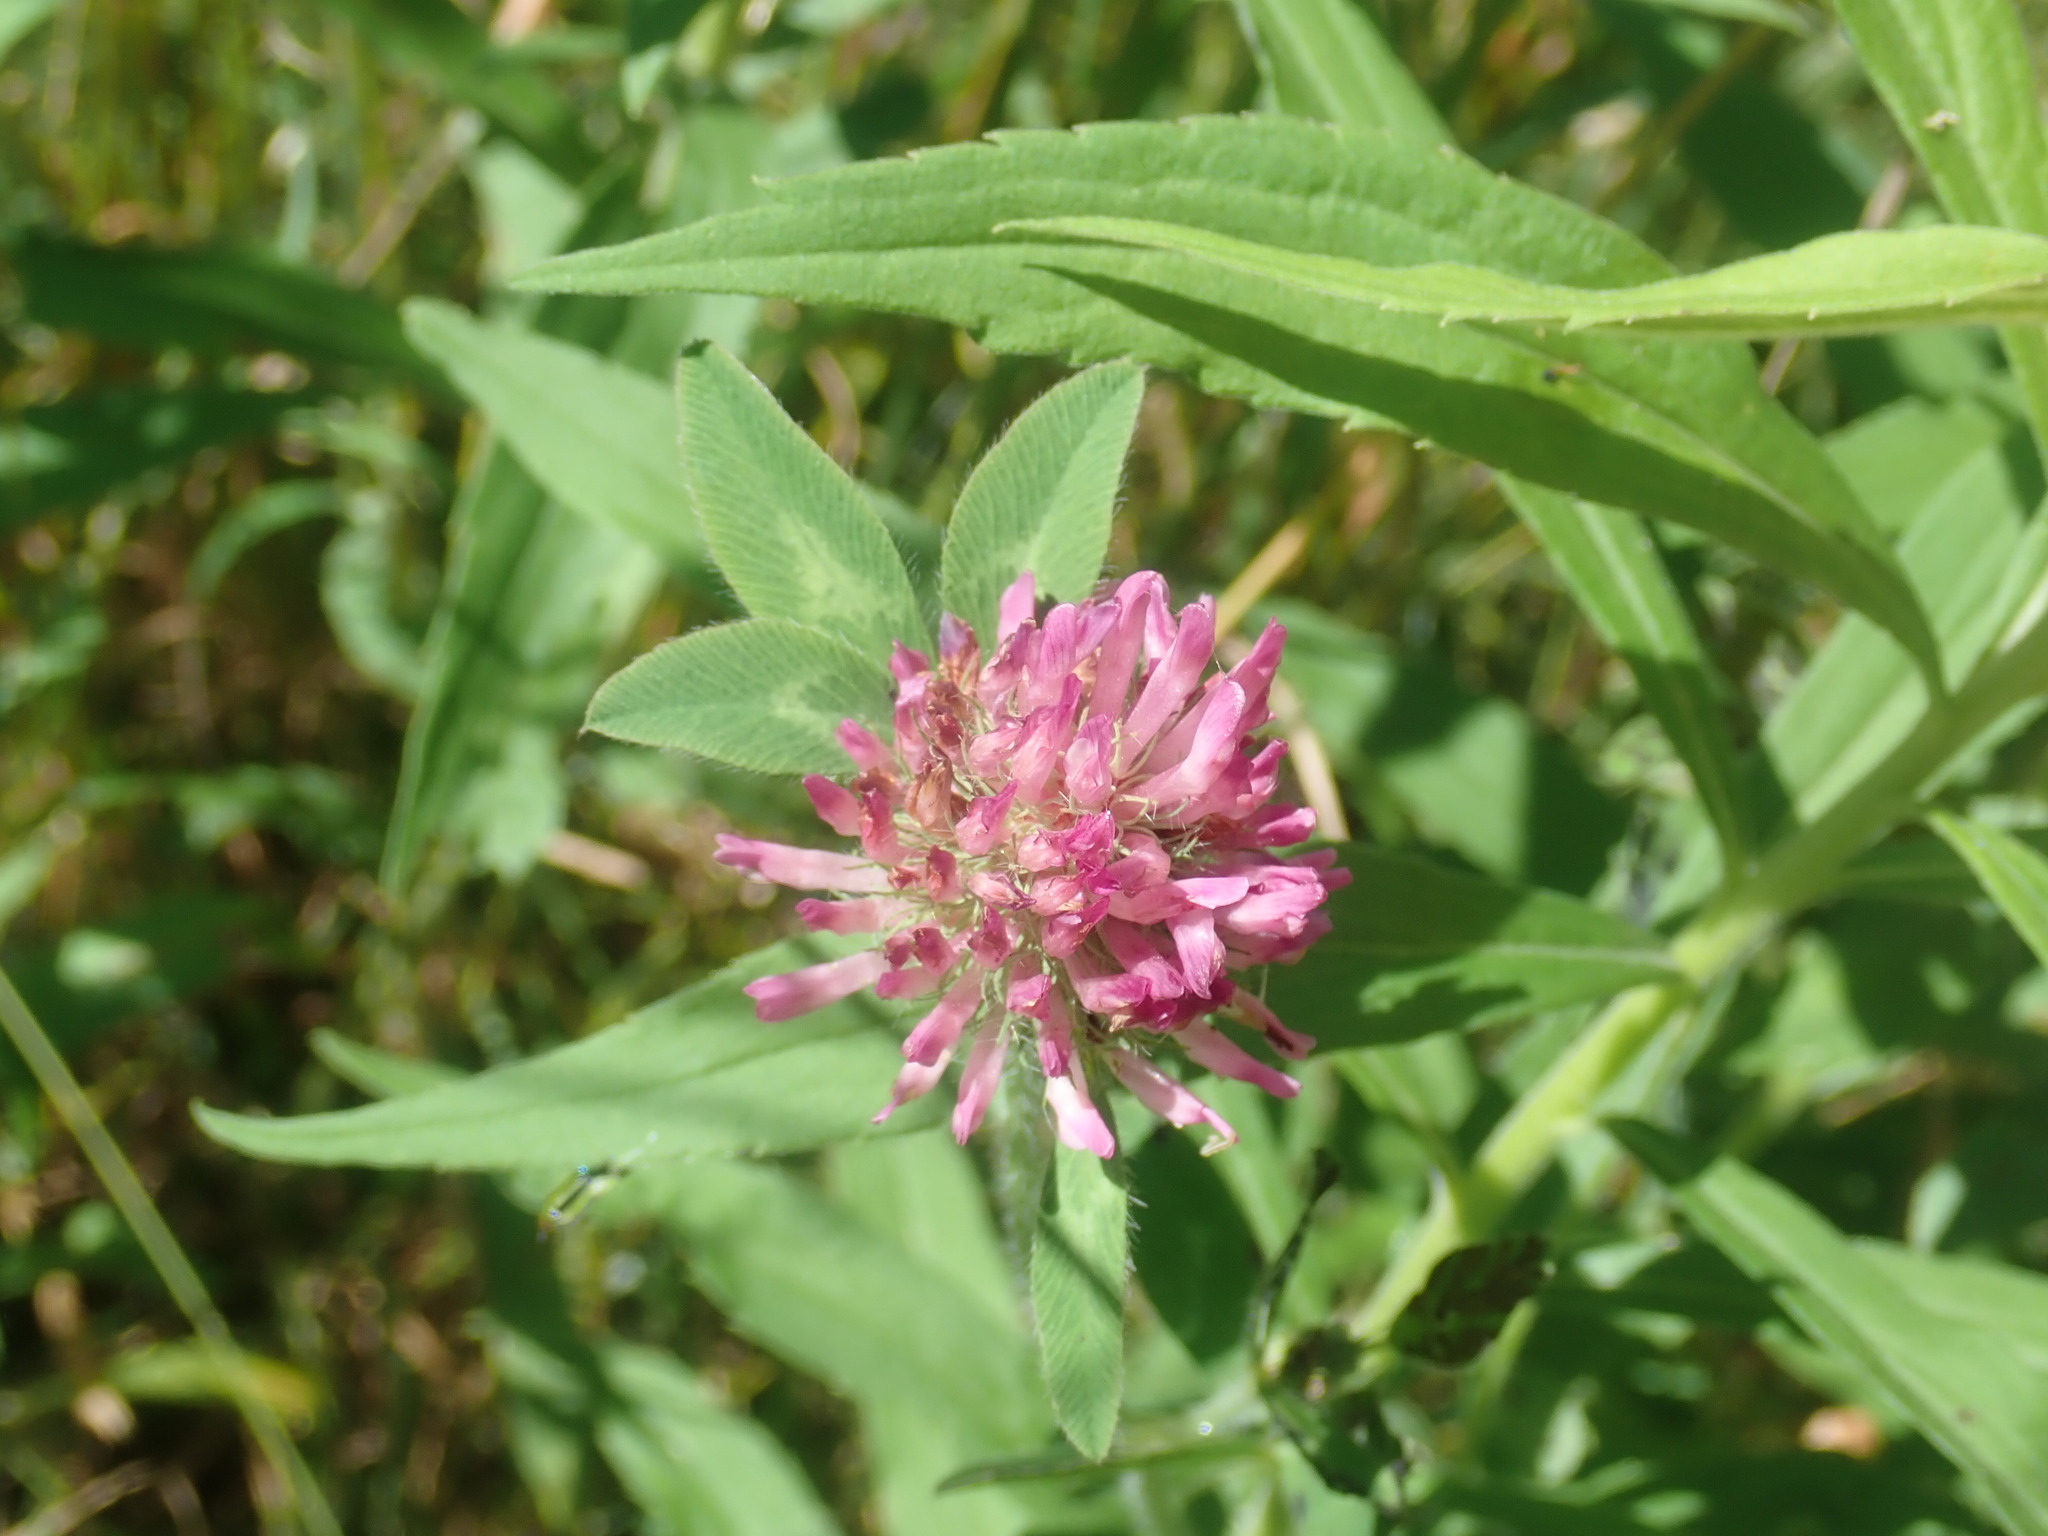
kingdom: Plantae
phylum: Tracheophyta
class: Magnoliopsida
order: Fabales
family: Fabaceae
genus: Trifolium
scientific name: Trifolium pratense
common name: Red clover
